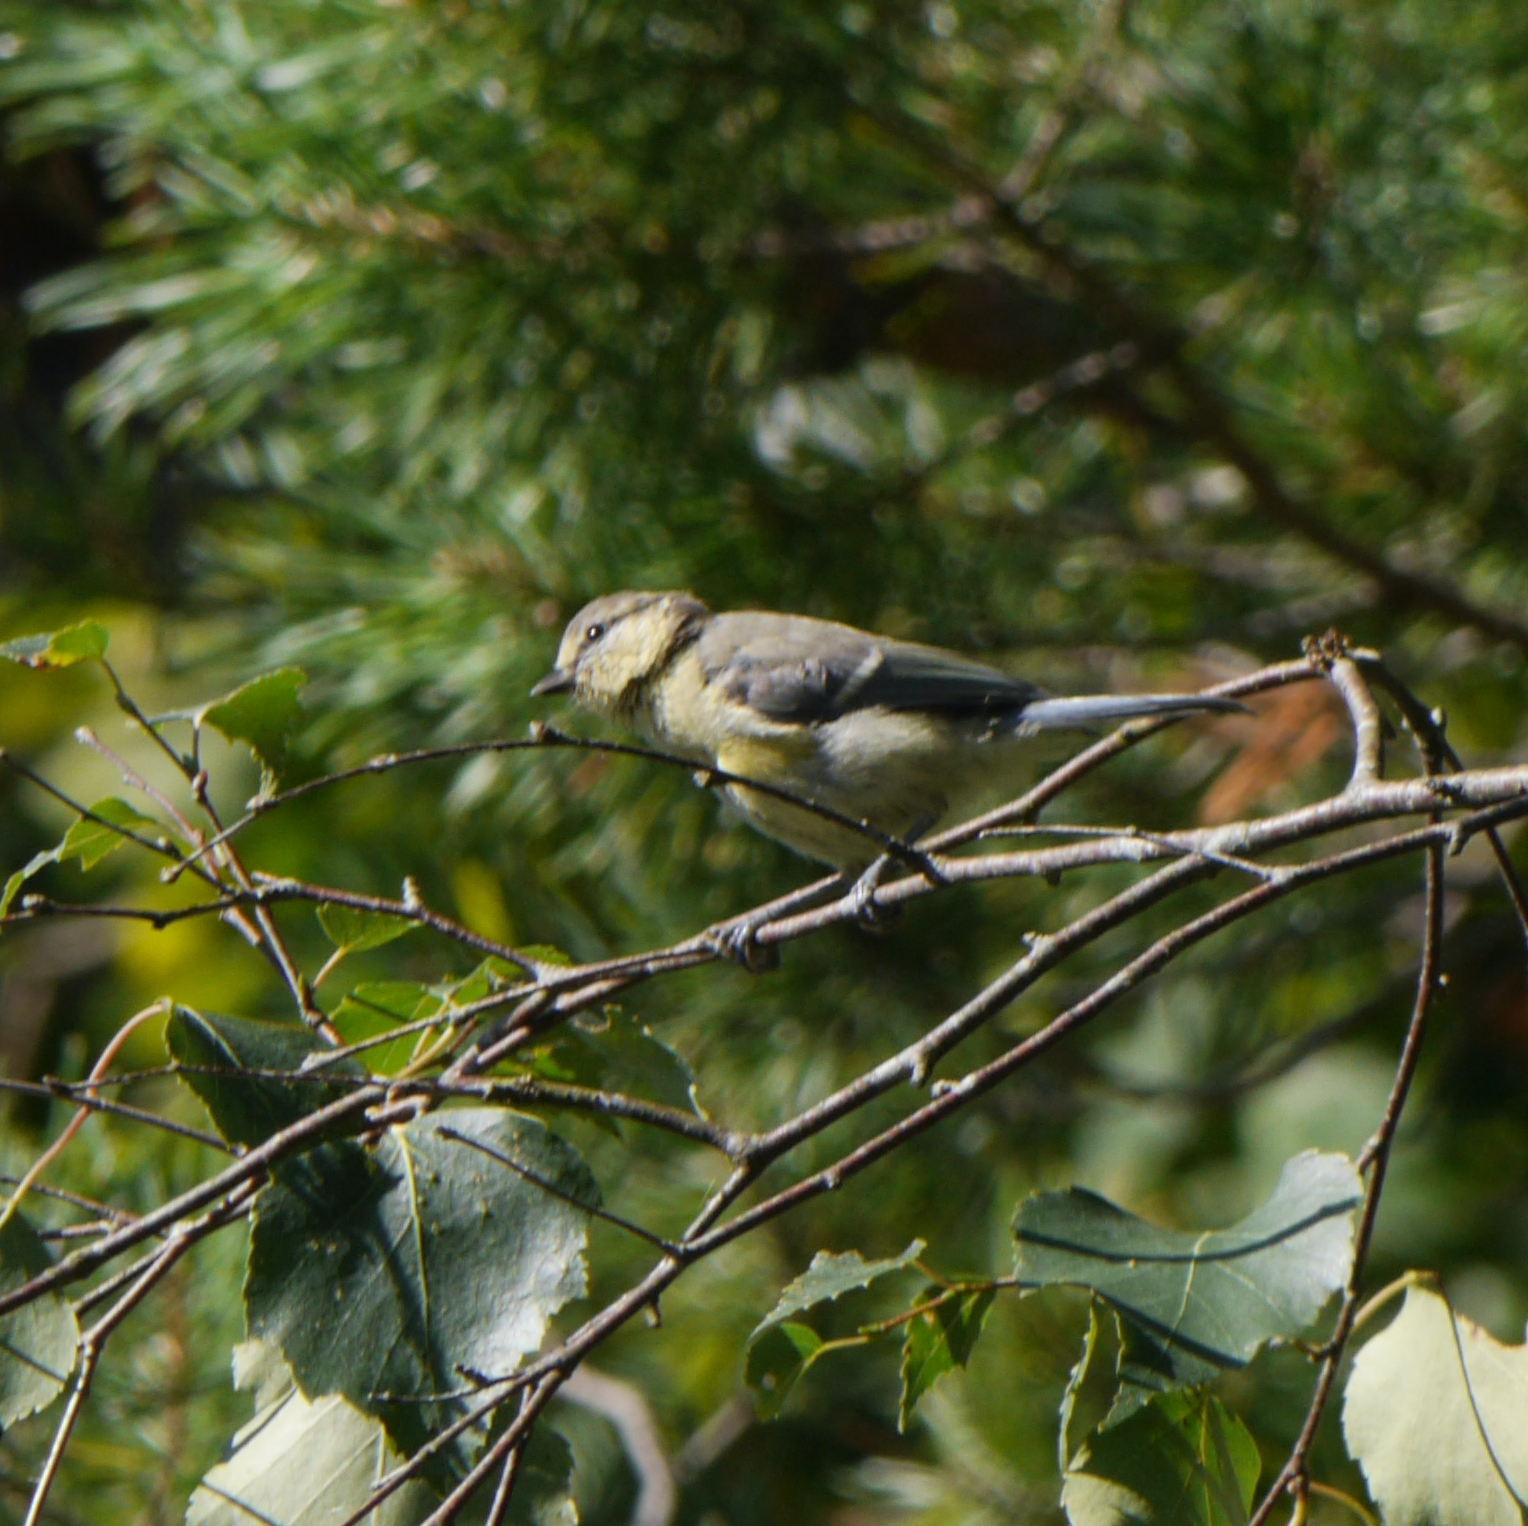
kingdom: Animalia
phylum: Chordata
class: Aves
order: Passeriformes
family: Paridae
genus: Cyanistes
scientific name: Cyanistes caeruleus
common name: Eurasian blue tit
